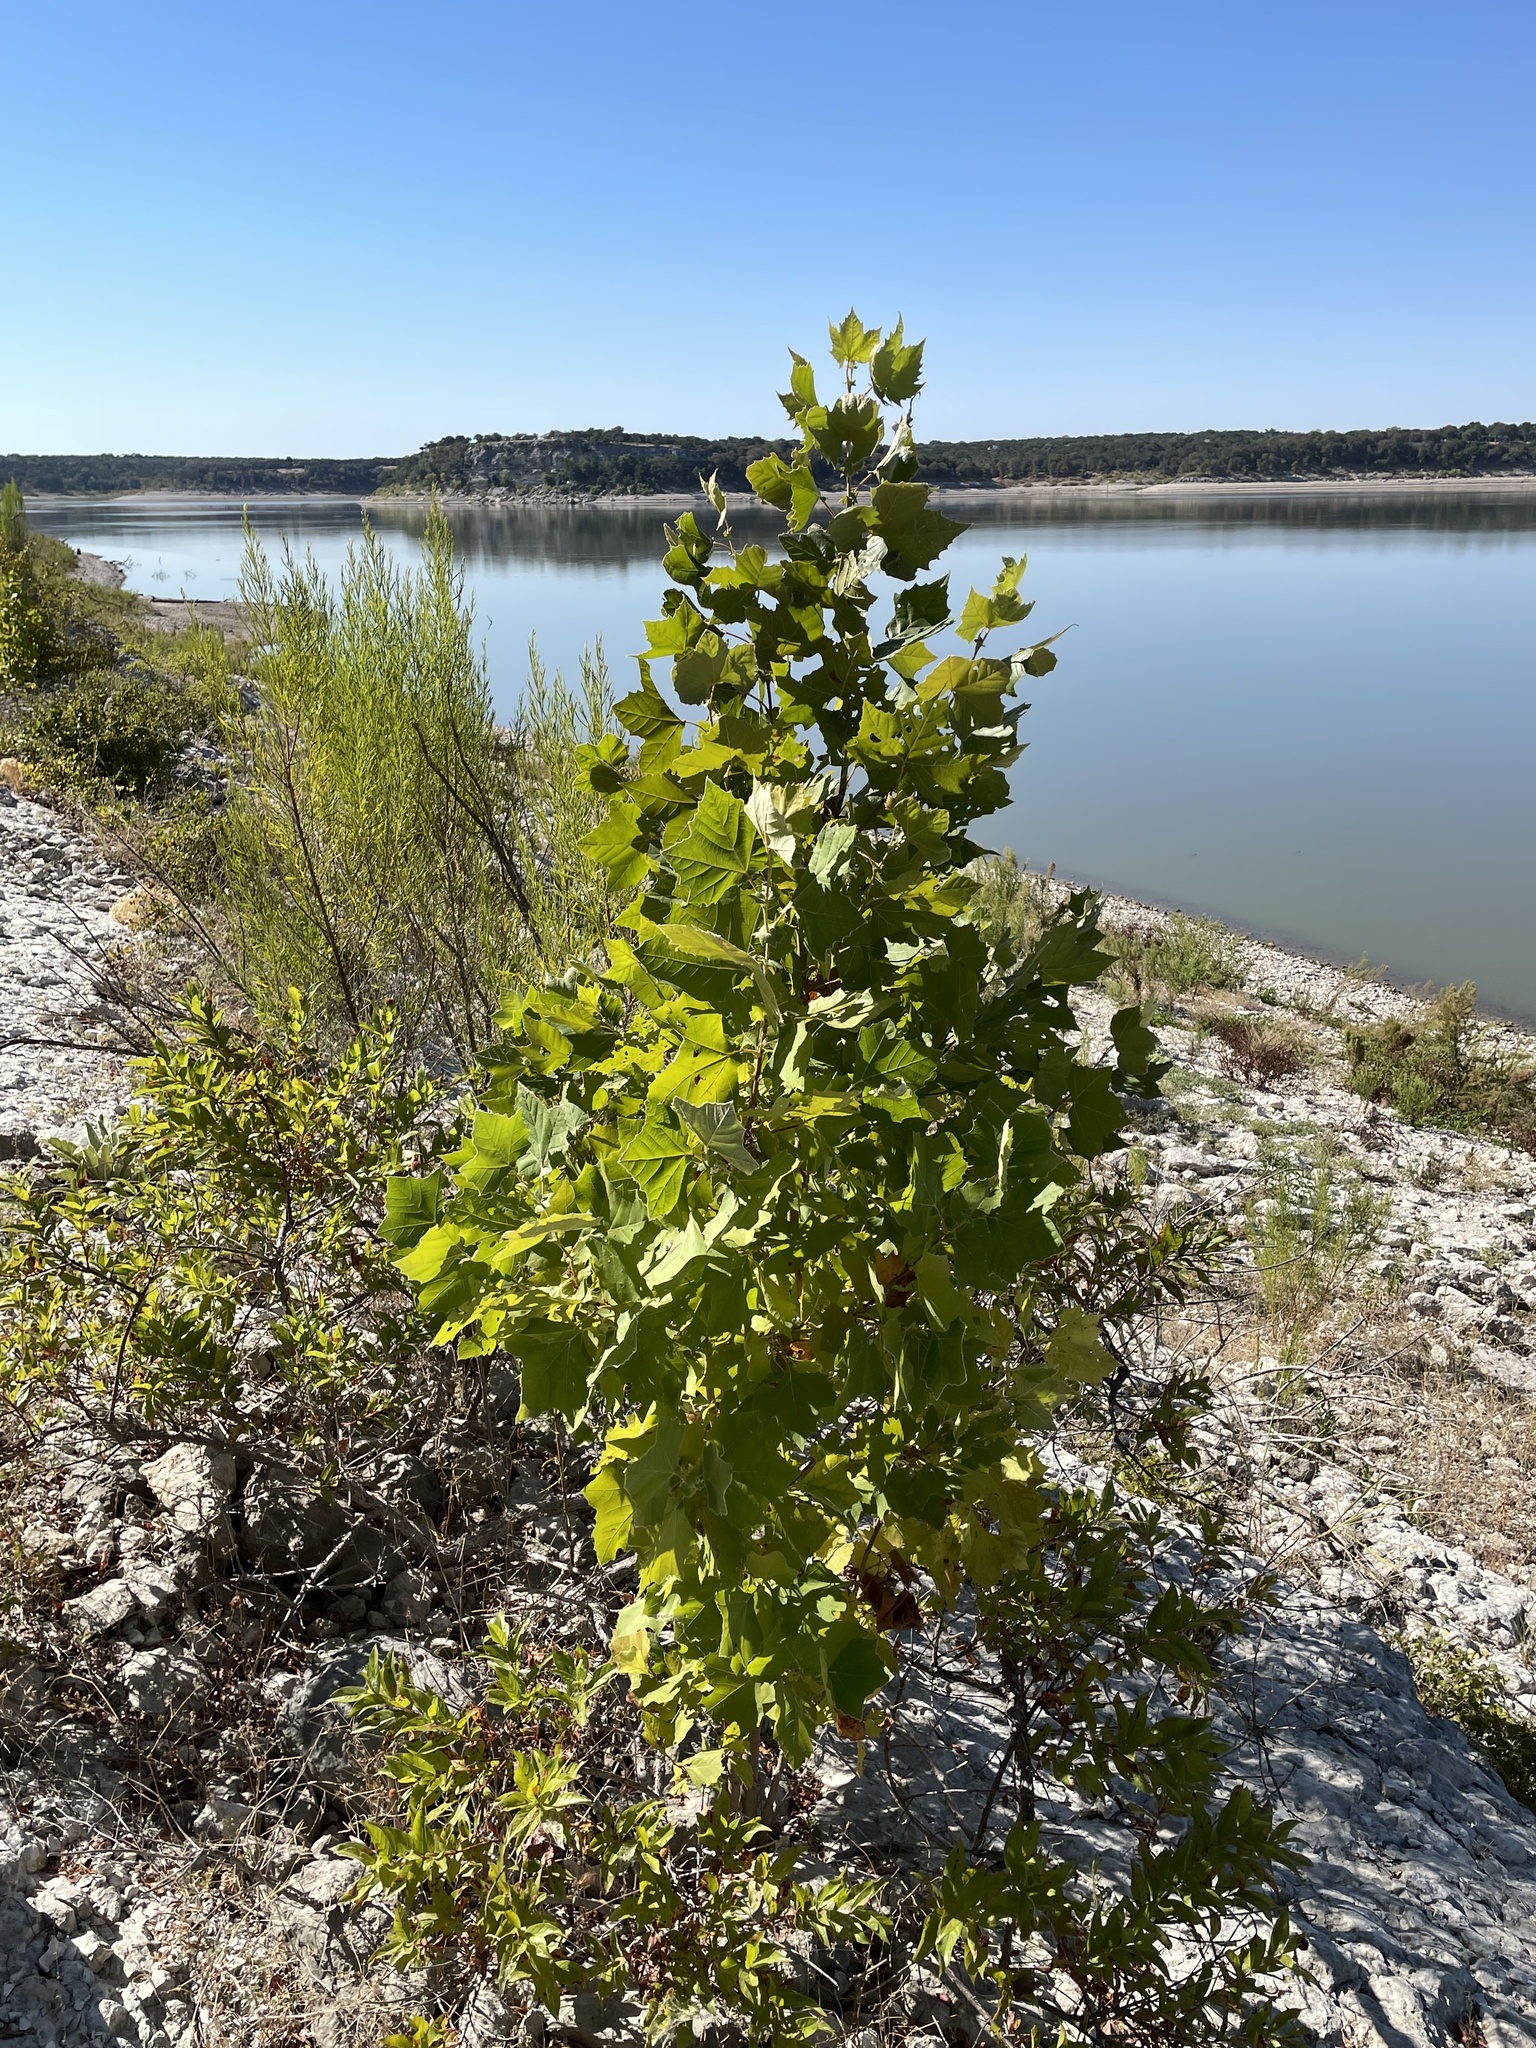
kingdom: Plantae
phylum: Tracheophyta
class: Magnoliopsida
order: Proteales
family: Platanaceae
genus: Platanus
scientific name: Platanus occidentalis
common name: American sycamore
